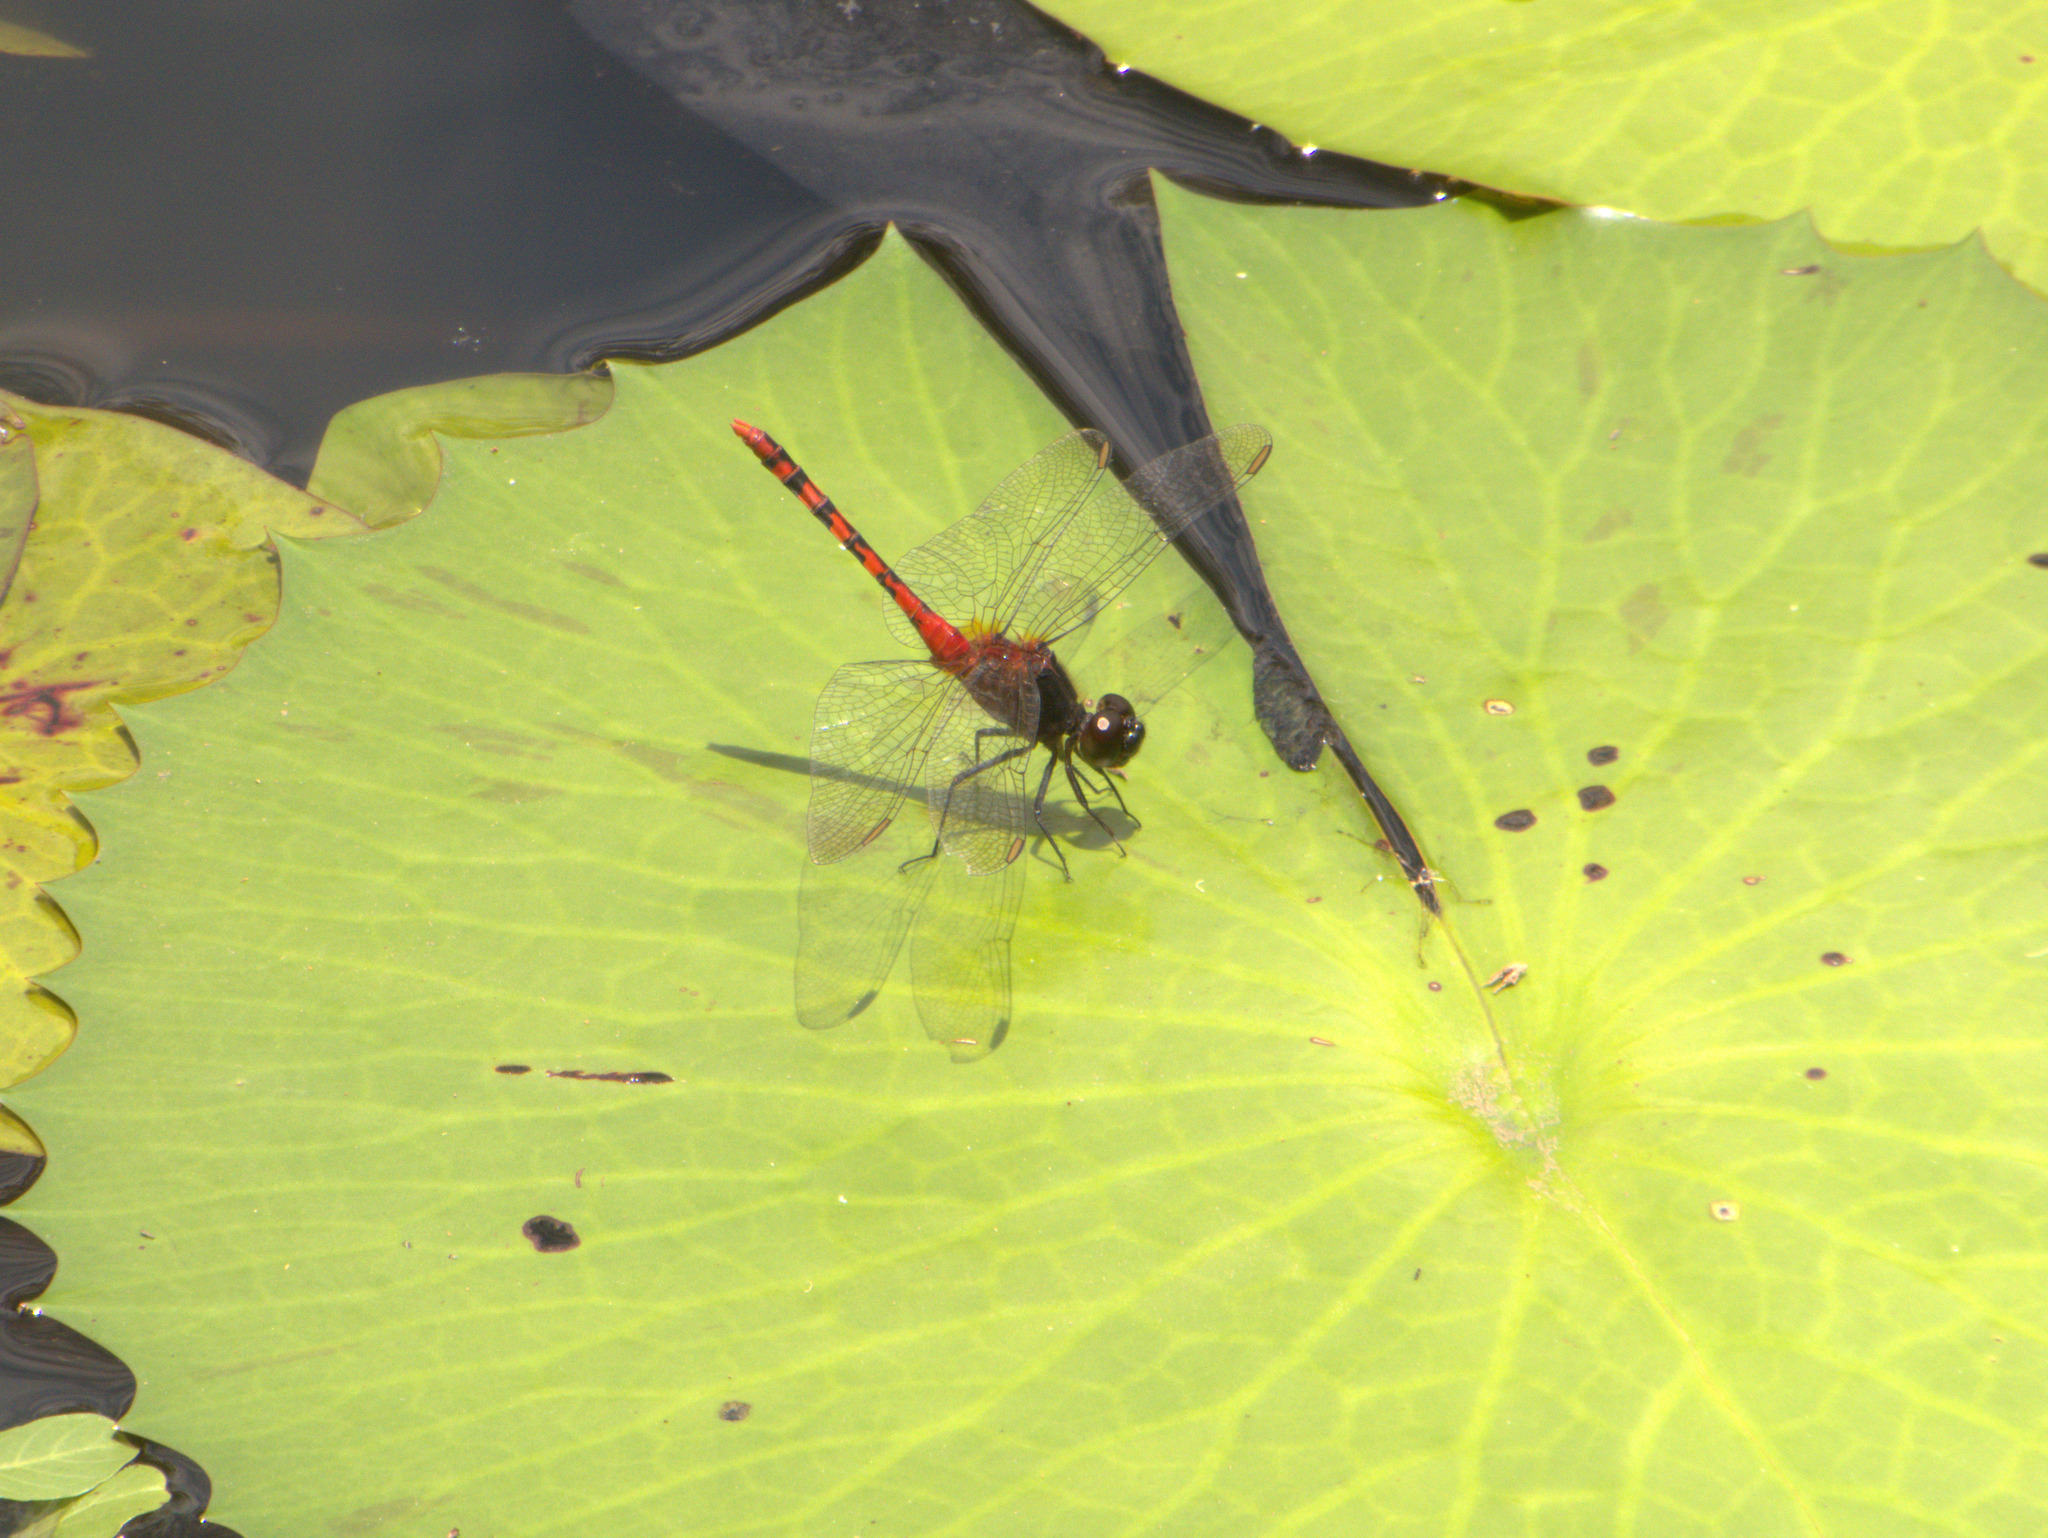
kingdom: Animalia
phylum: Arthropoda
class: Insecta
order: Odonata
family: Libellulidae
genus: Diplacodes
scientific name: Diplacodes melanopsis
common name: Black-faced percher
